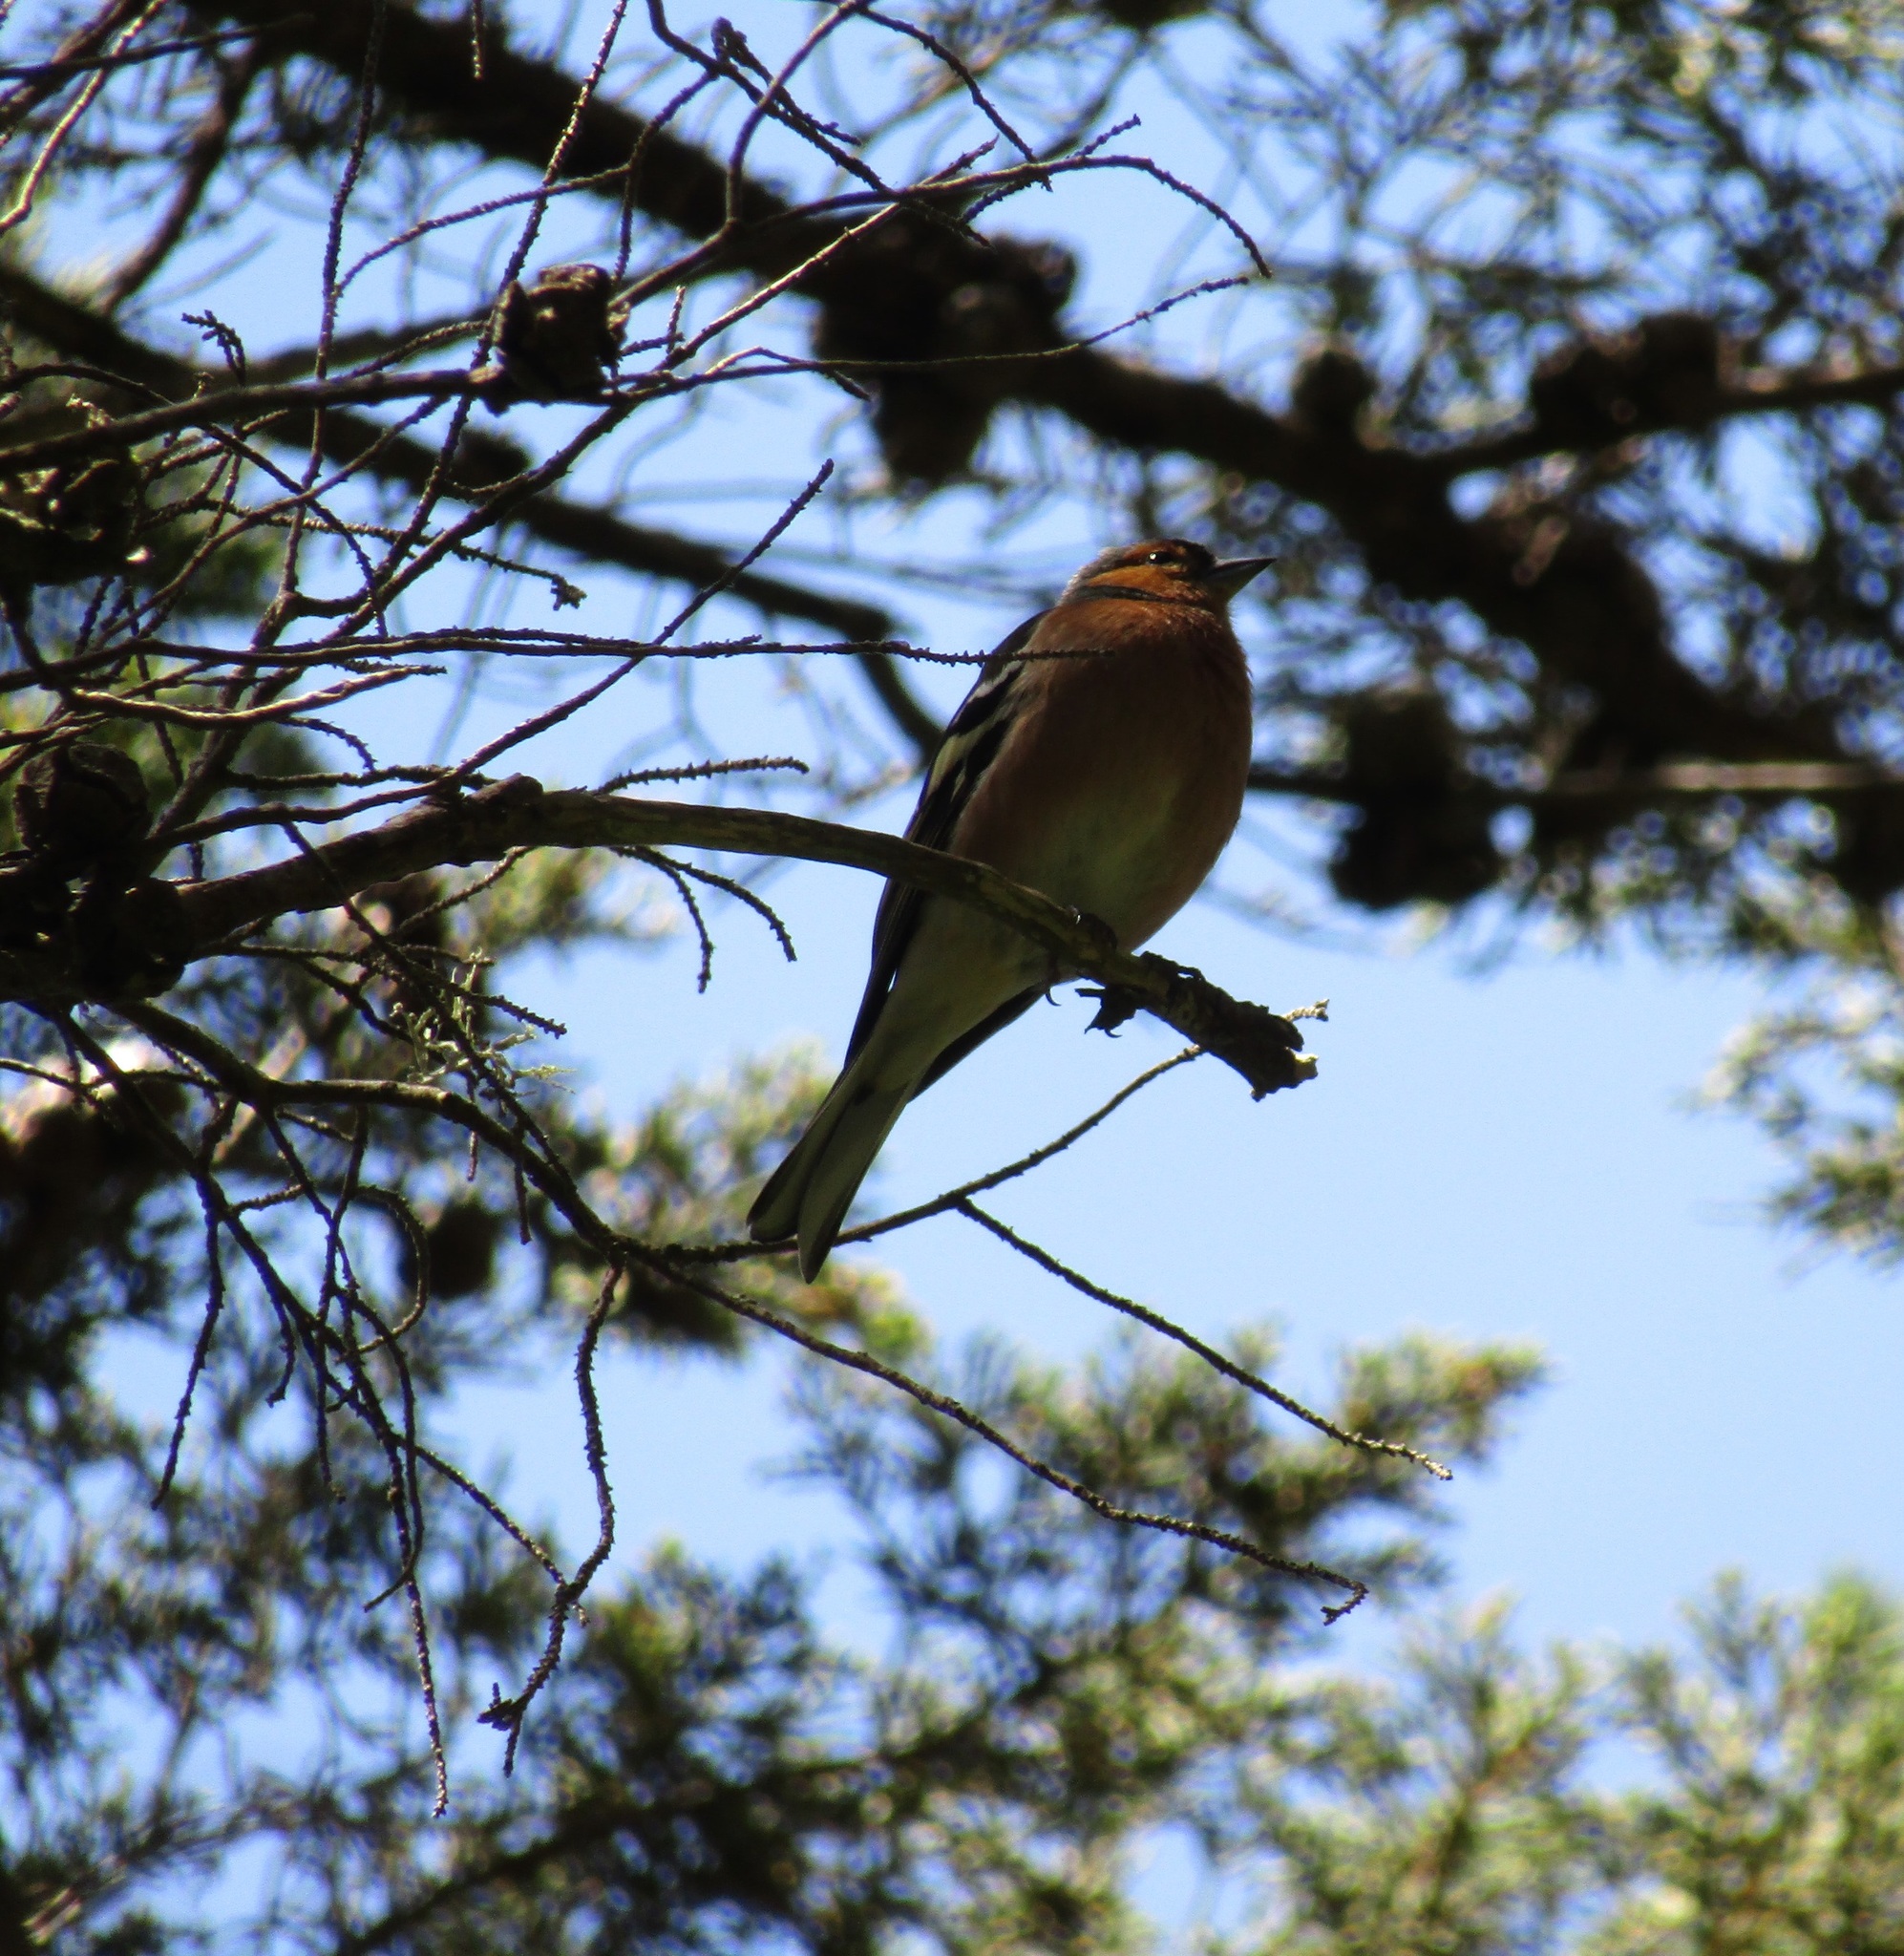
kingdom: Animalia
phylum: Chordata
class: Aves
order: Passeriformes
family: Fringillidae
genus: Fringilla
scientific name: Fringilla coelebs
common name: Common chaffinch
